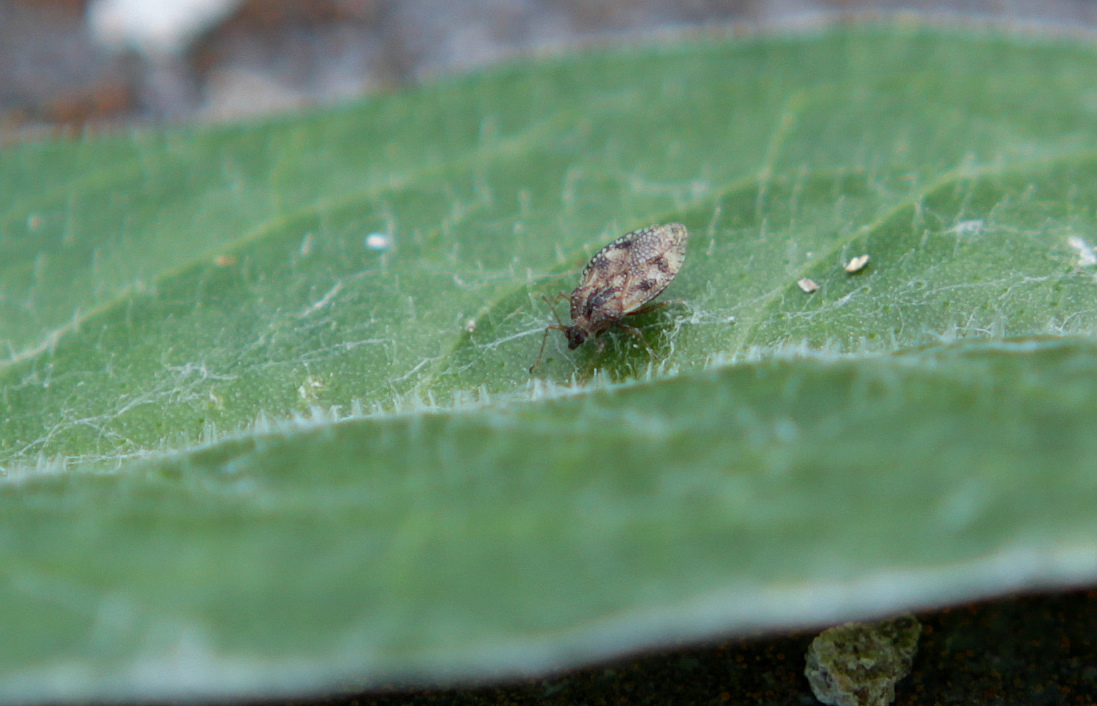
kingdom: Animalia
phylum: Arthropoda
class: Insecta
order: Hemiptera
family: Tingidae
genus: Dictyla
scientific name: Dictyla humuli
